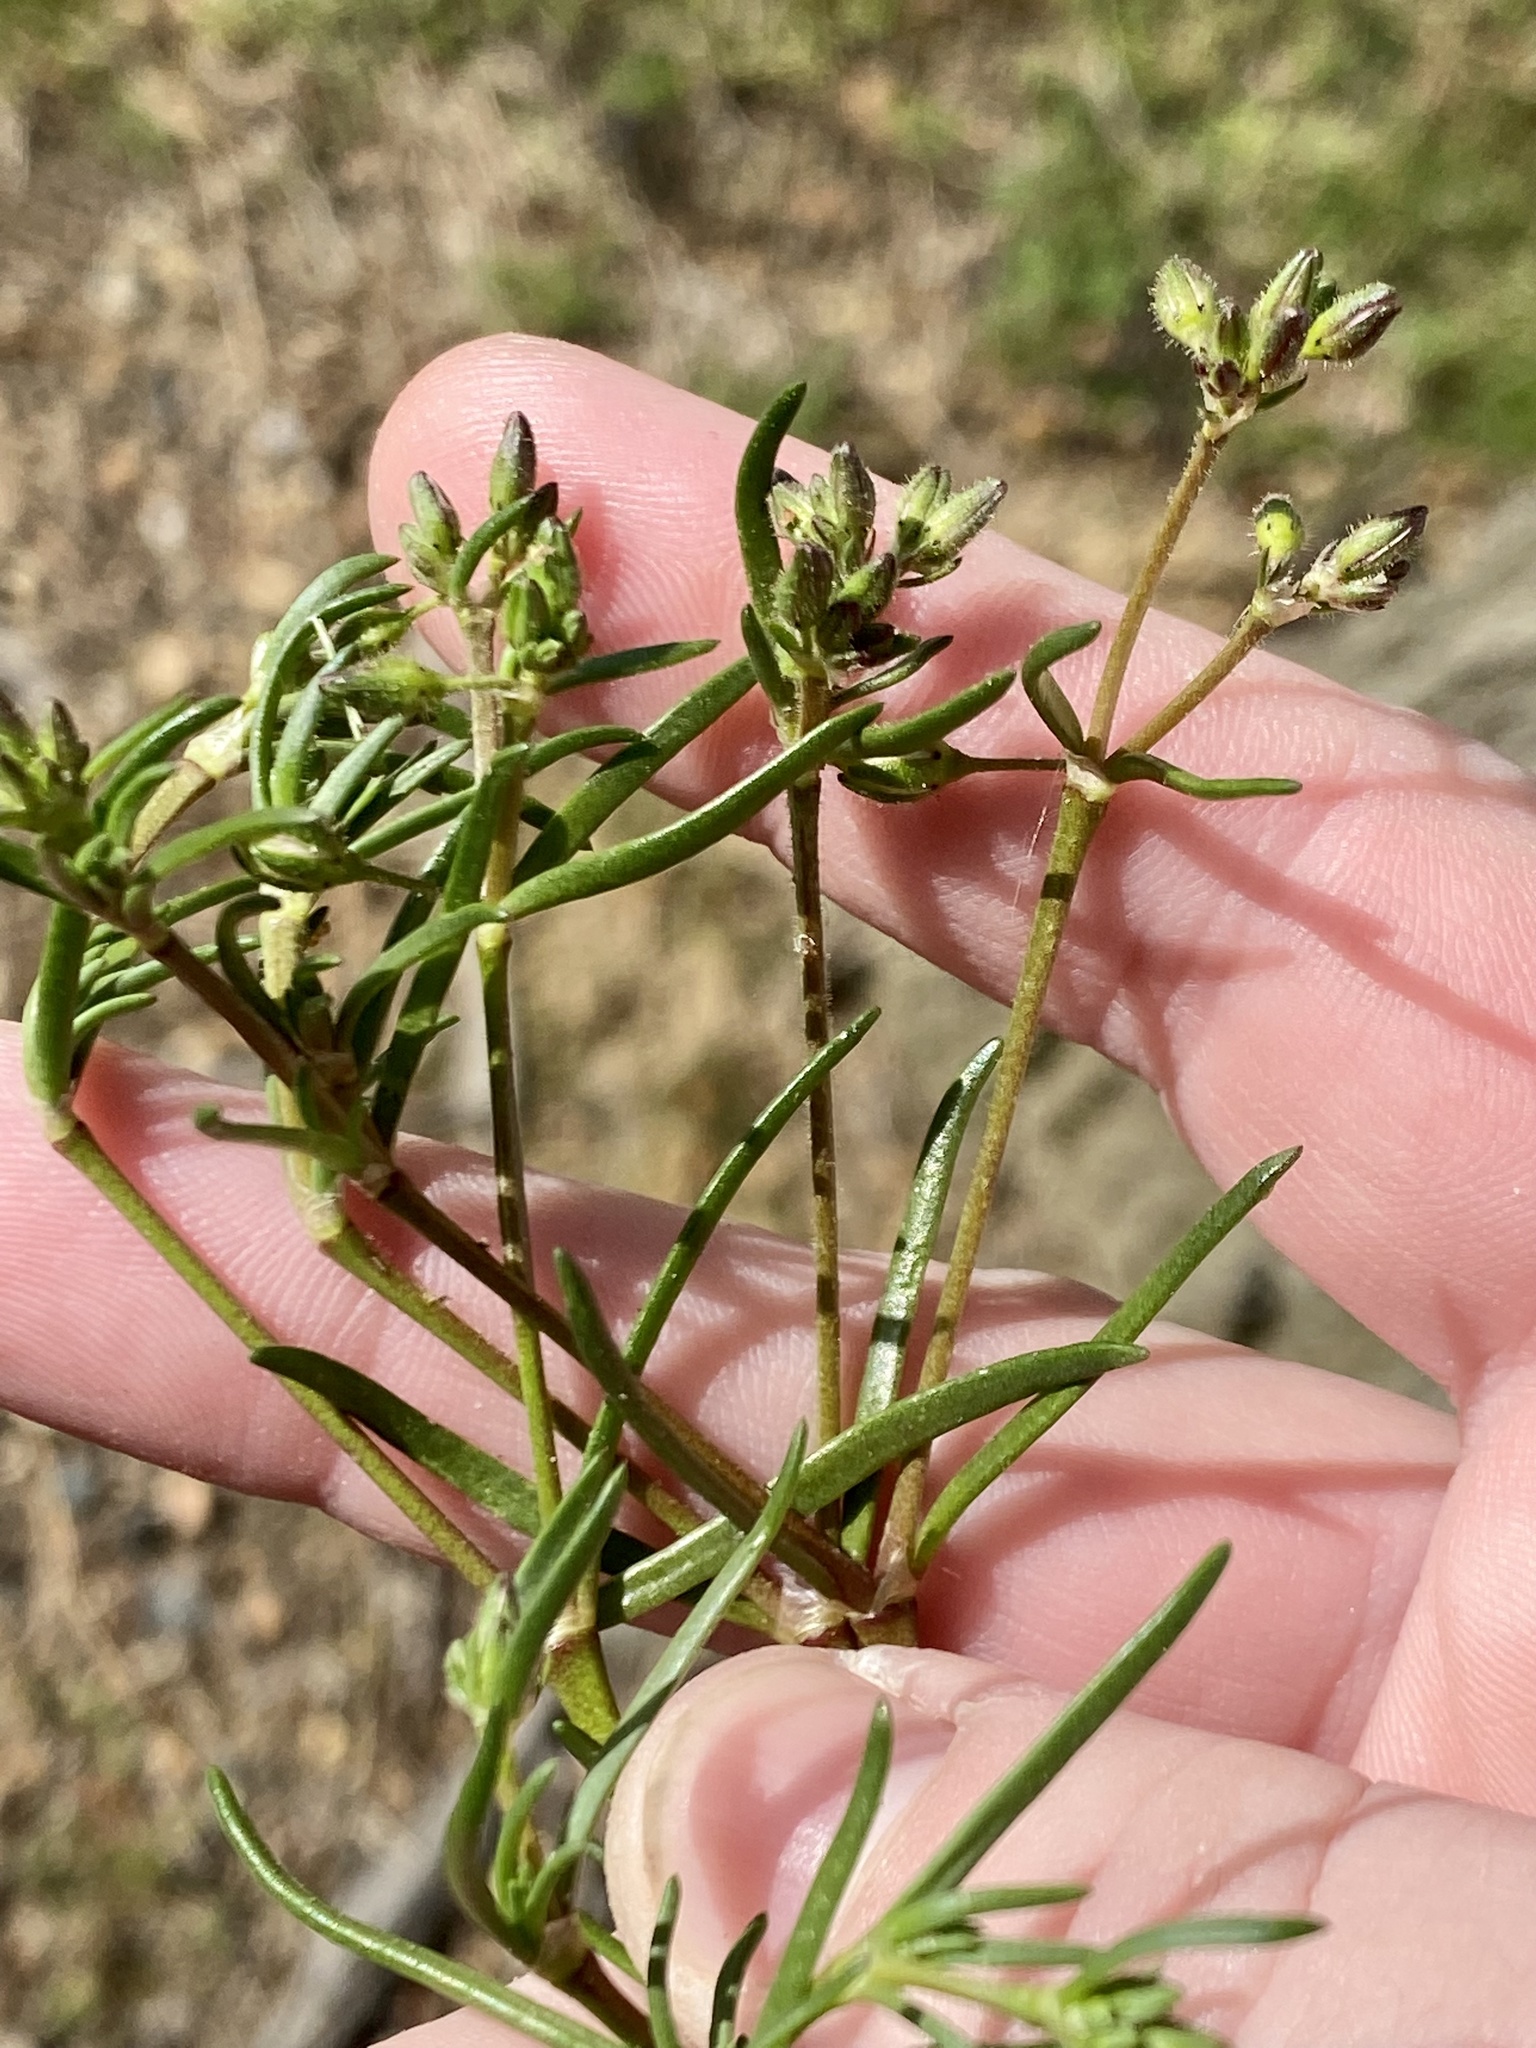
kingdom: Plantae
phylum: Tracheophyta
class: Magnoliopsida
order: Caryophyllales
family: Caryophyllaceae
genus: Spergularia
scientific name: Spergularia marina
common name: Lesser sea-spurrey
